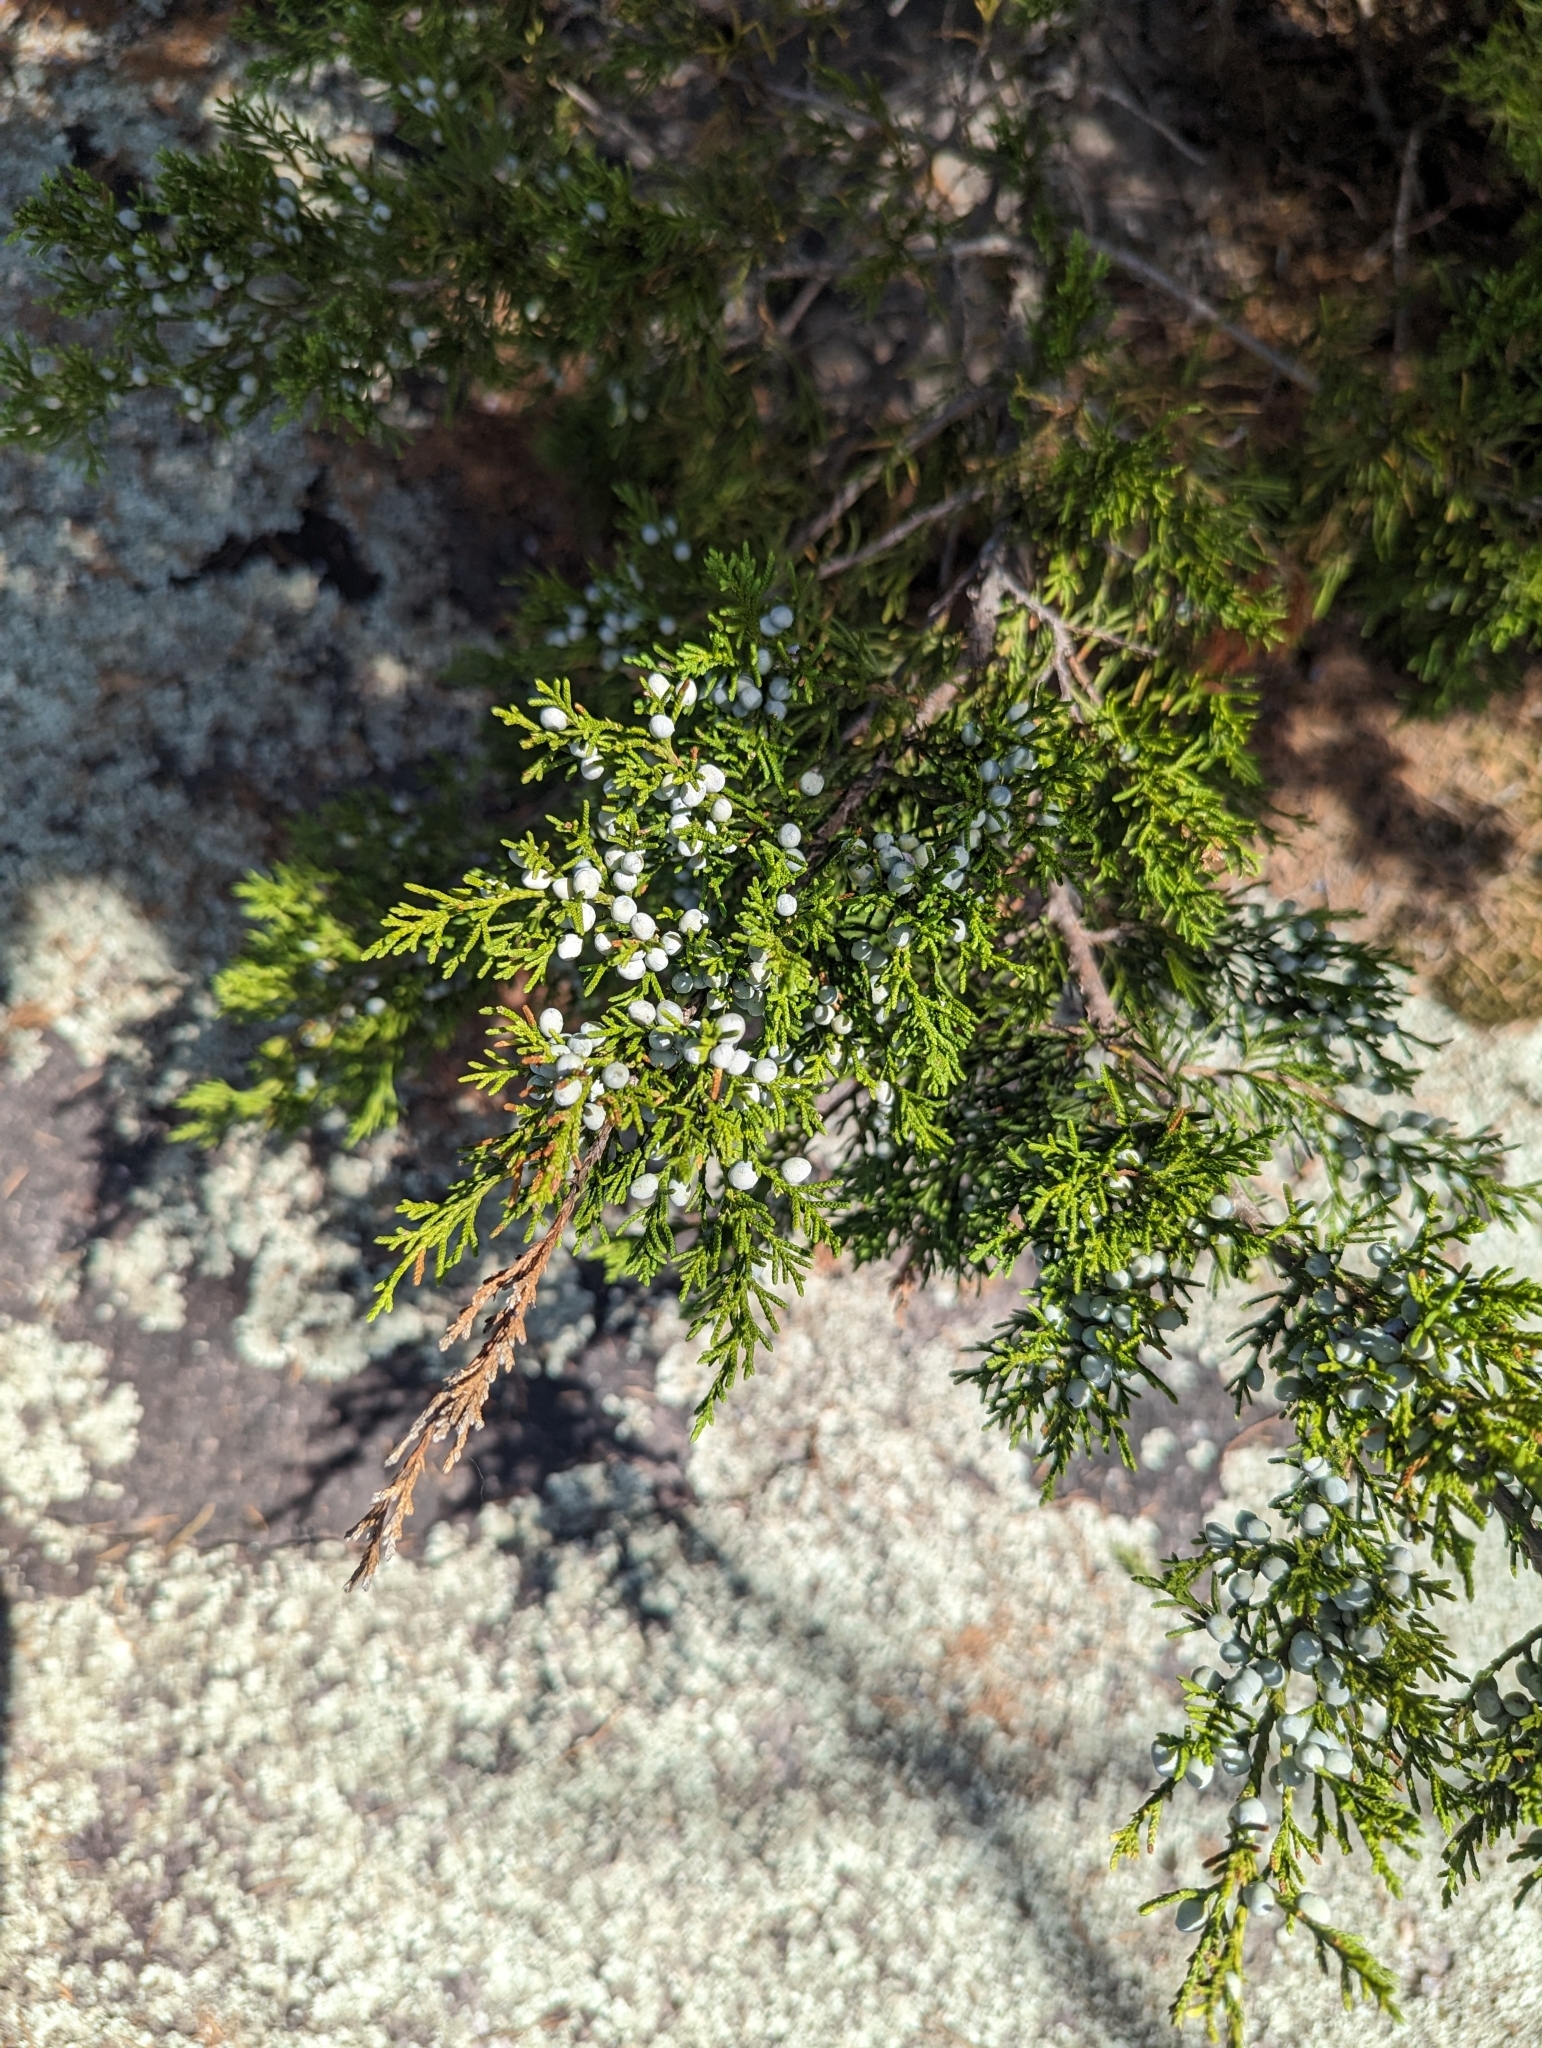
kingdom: Plantae
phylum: Tracheophyta
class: Pinopsida
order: Pinales
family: Cupressaceae
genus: Juniperus
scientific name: Juniperus virginiana
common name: Red juniper
